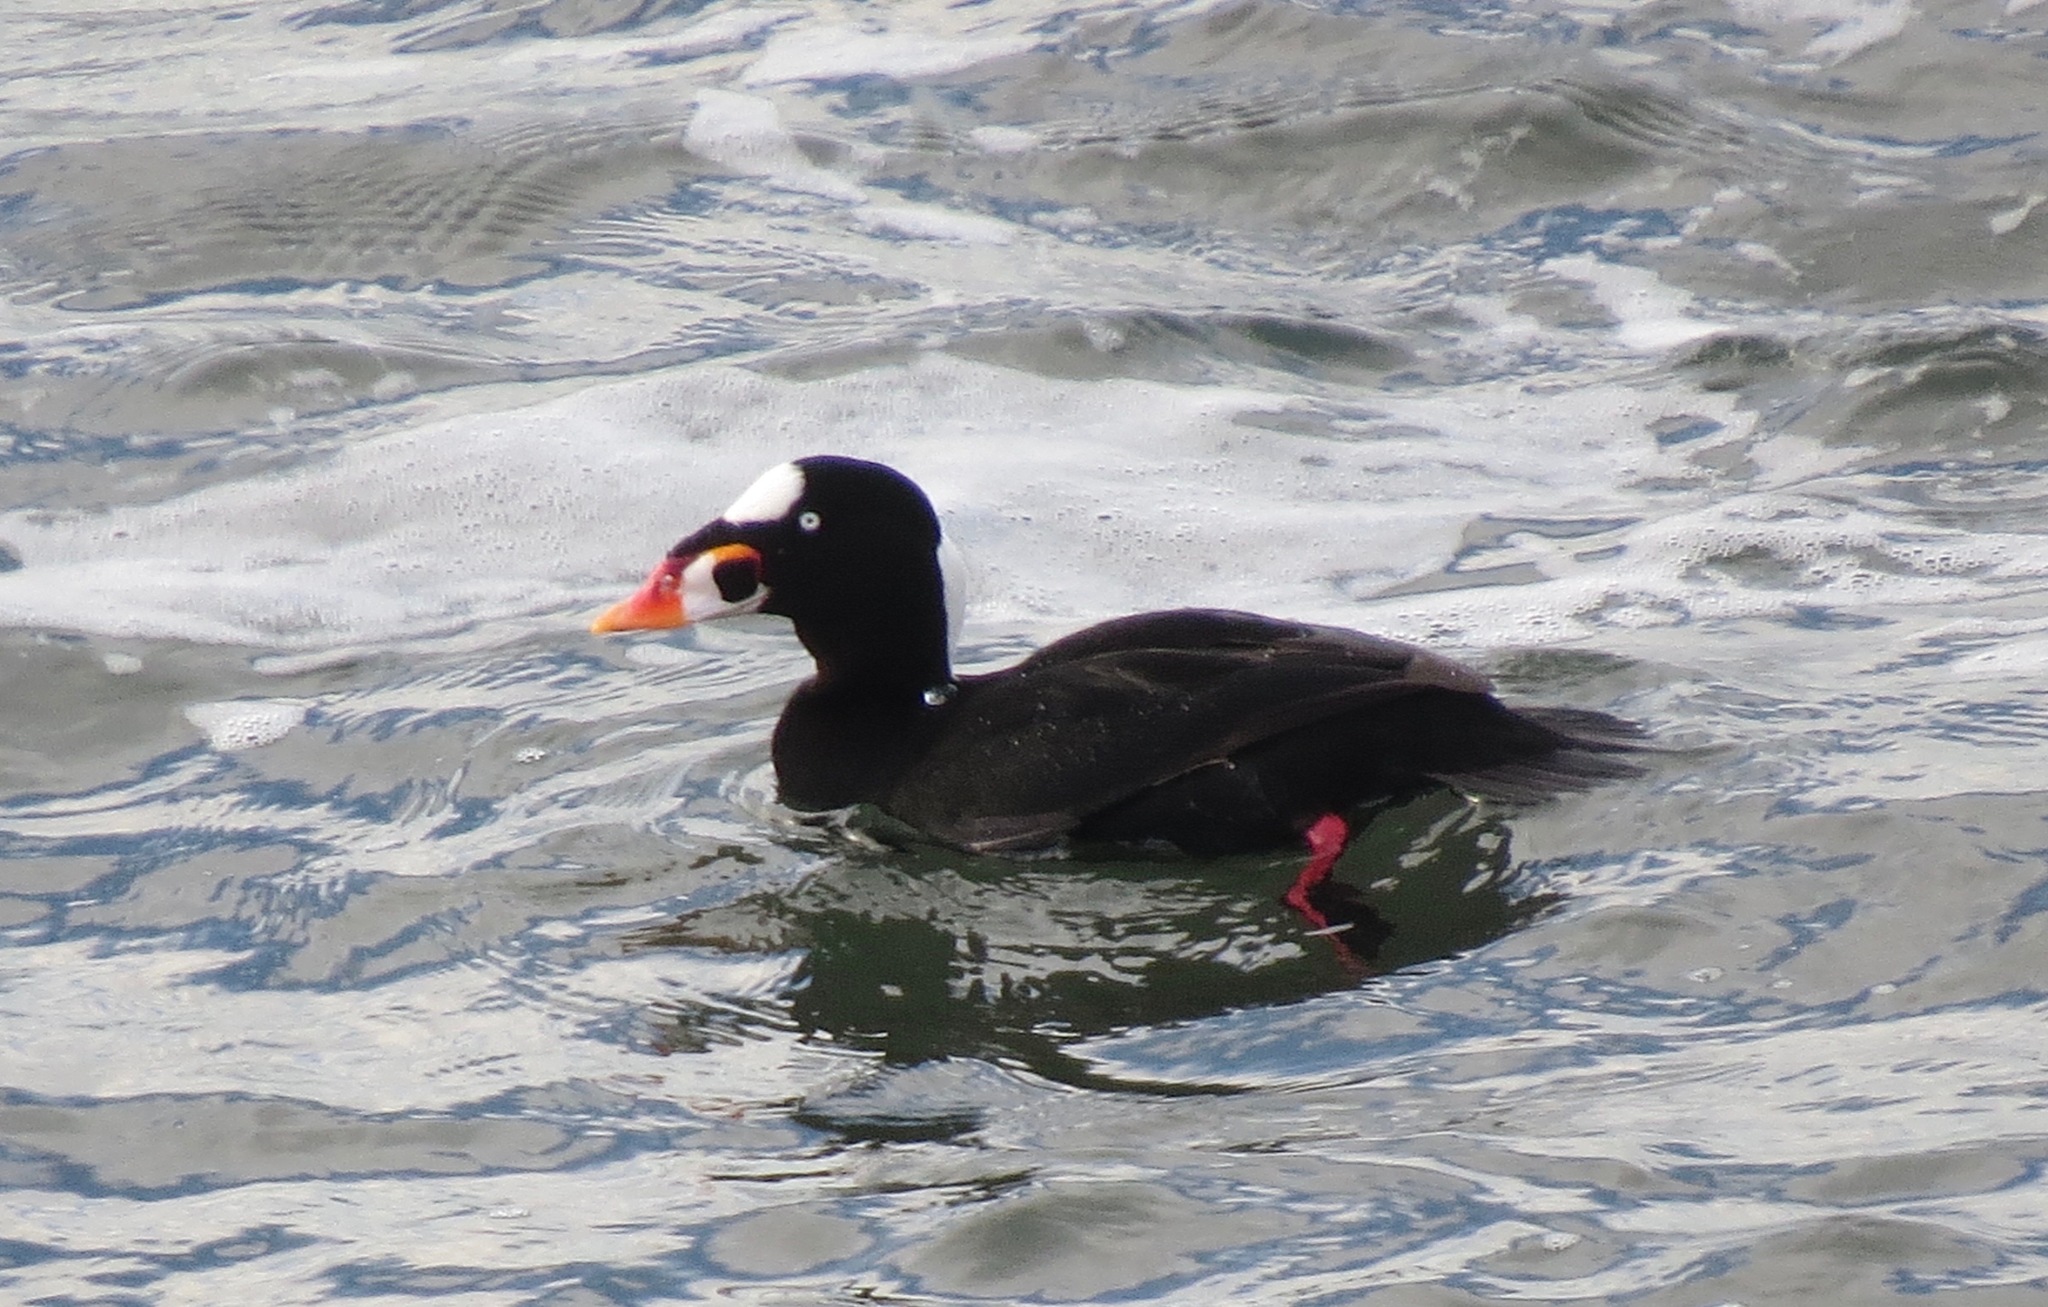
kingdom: Animalia
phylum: Chordata
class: Aves
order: Anseriformes
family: Anatidae
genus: Melanitta
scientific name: Melanitta perspicillata
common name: Surf scoter
